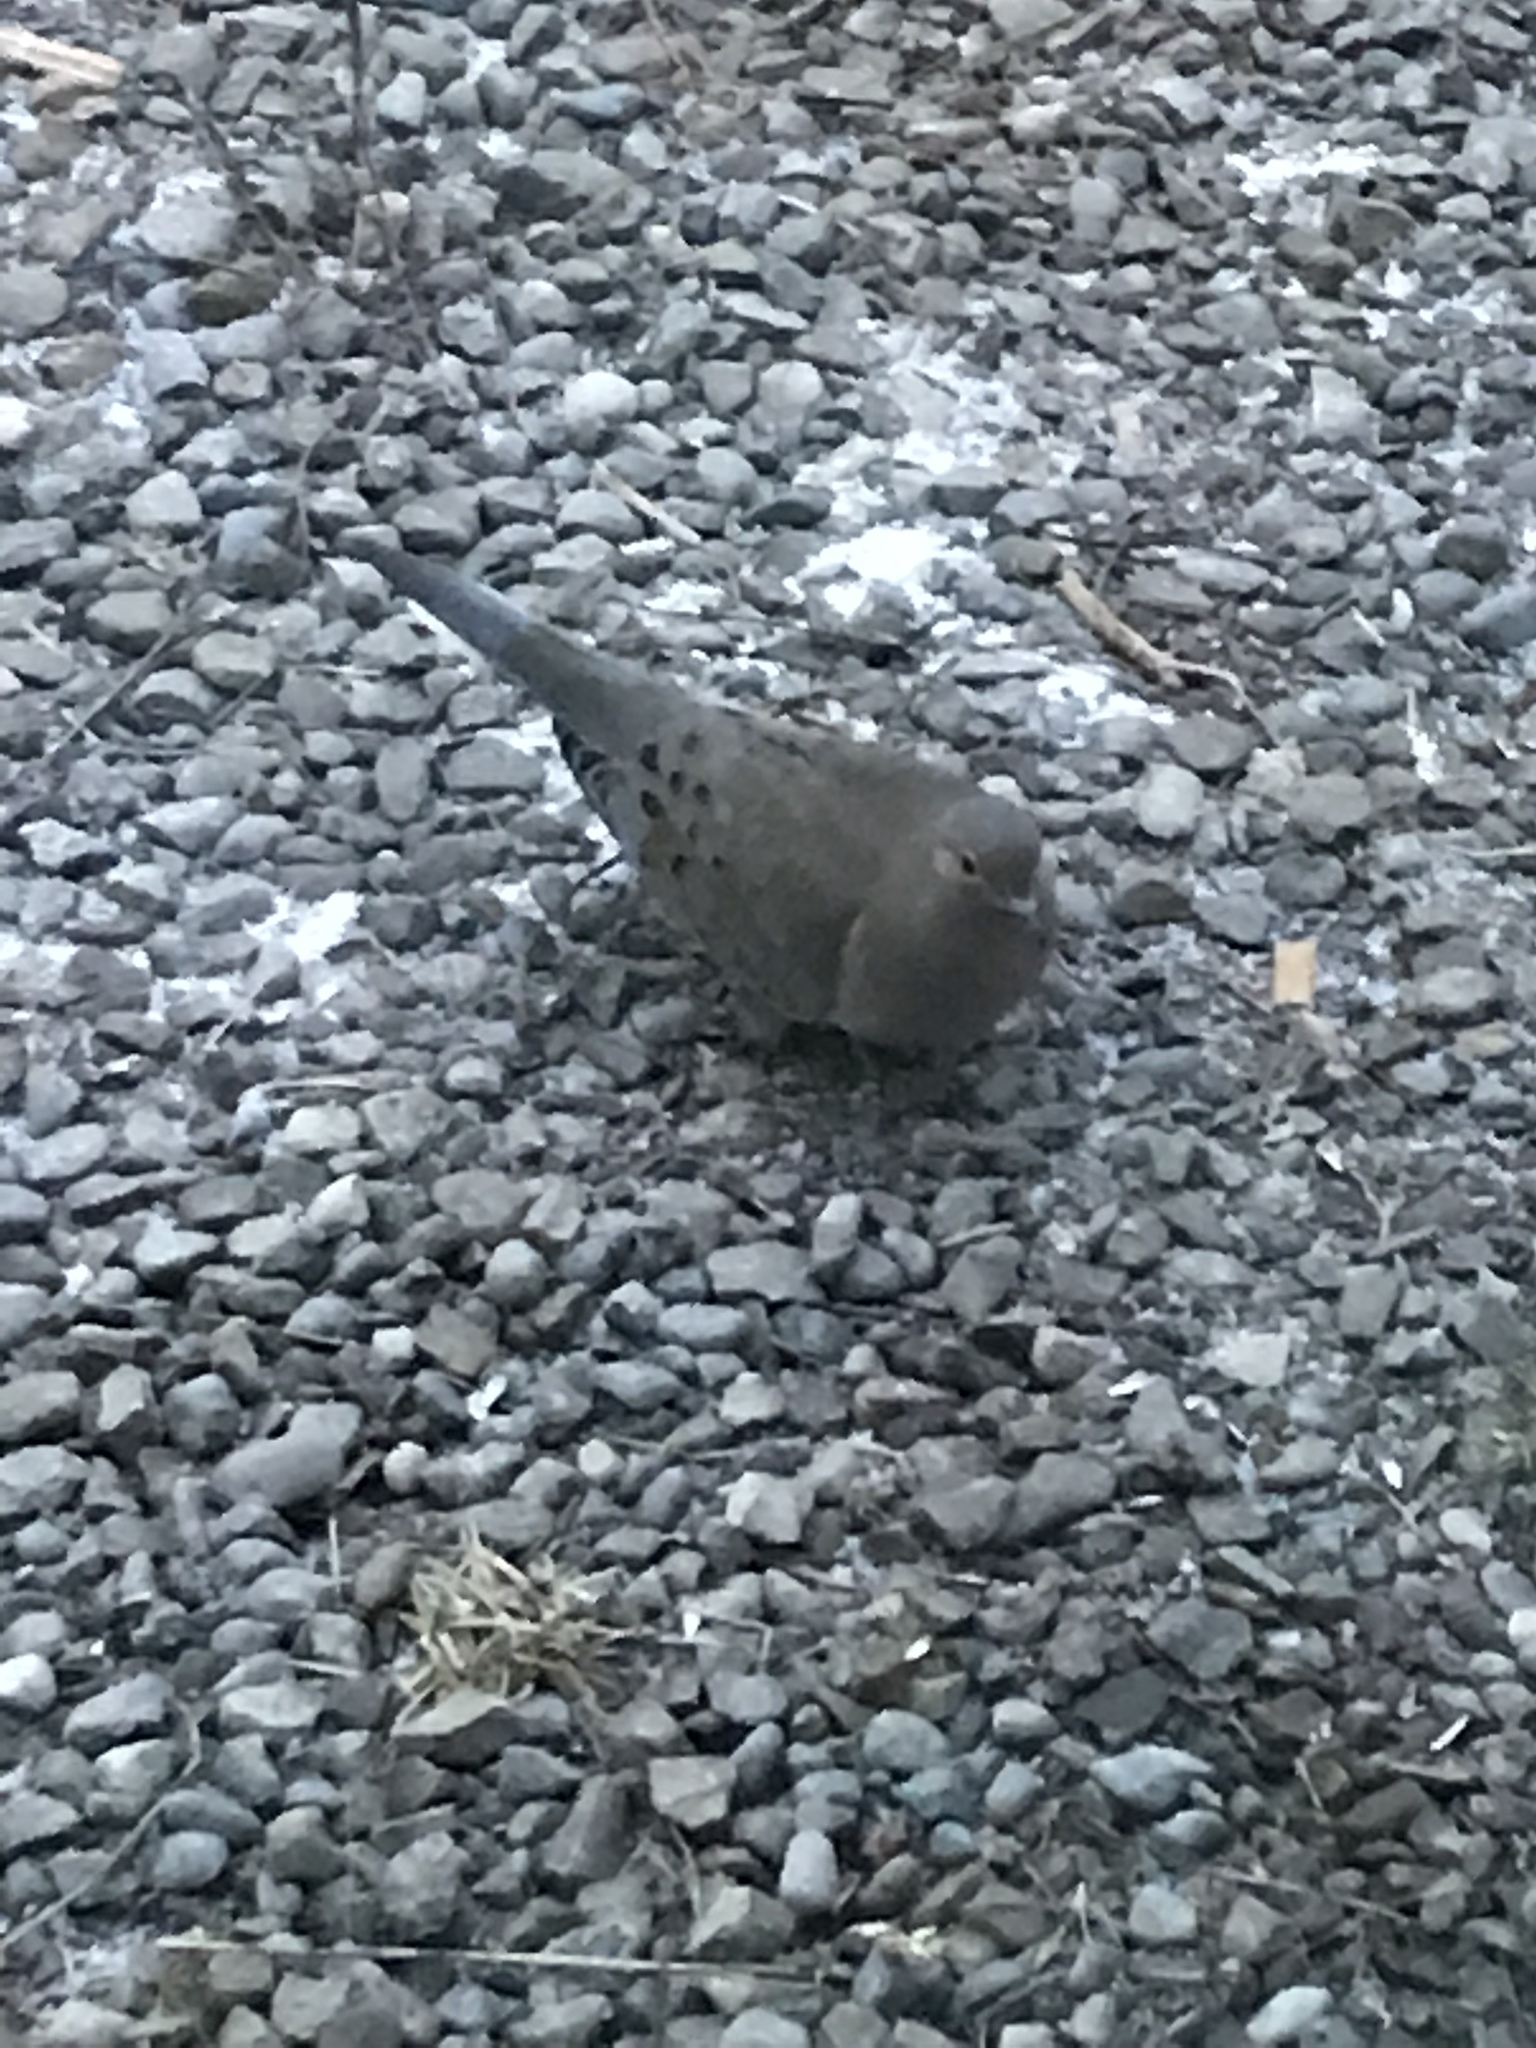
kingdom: Animalia
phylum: Chordata
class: Aves
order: Columbiformes
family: Columbidae
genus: Zenaida
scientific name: Zenaida macroura
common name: Mourning dove
